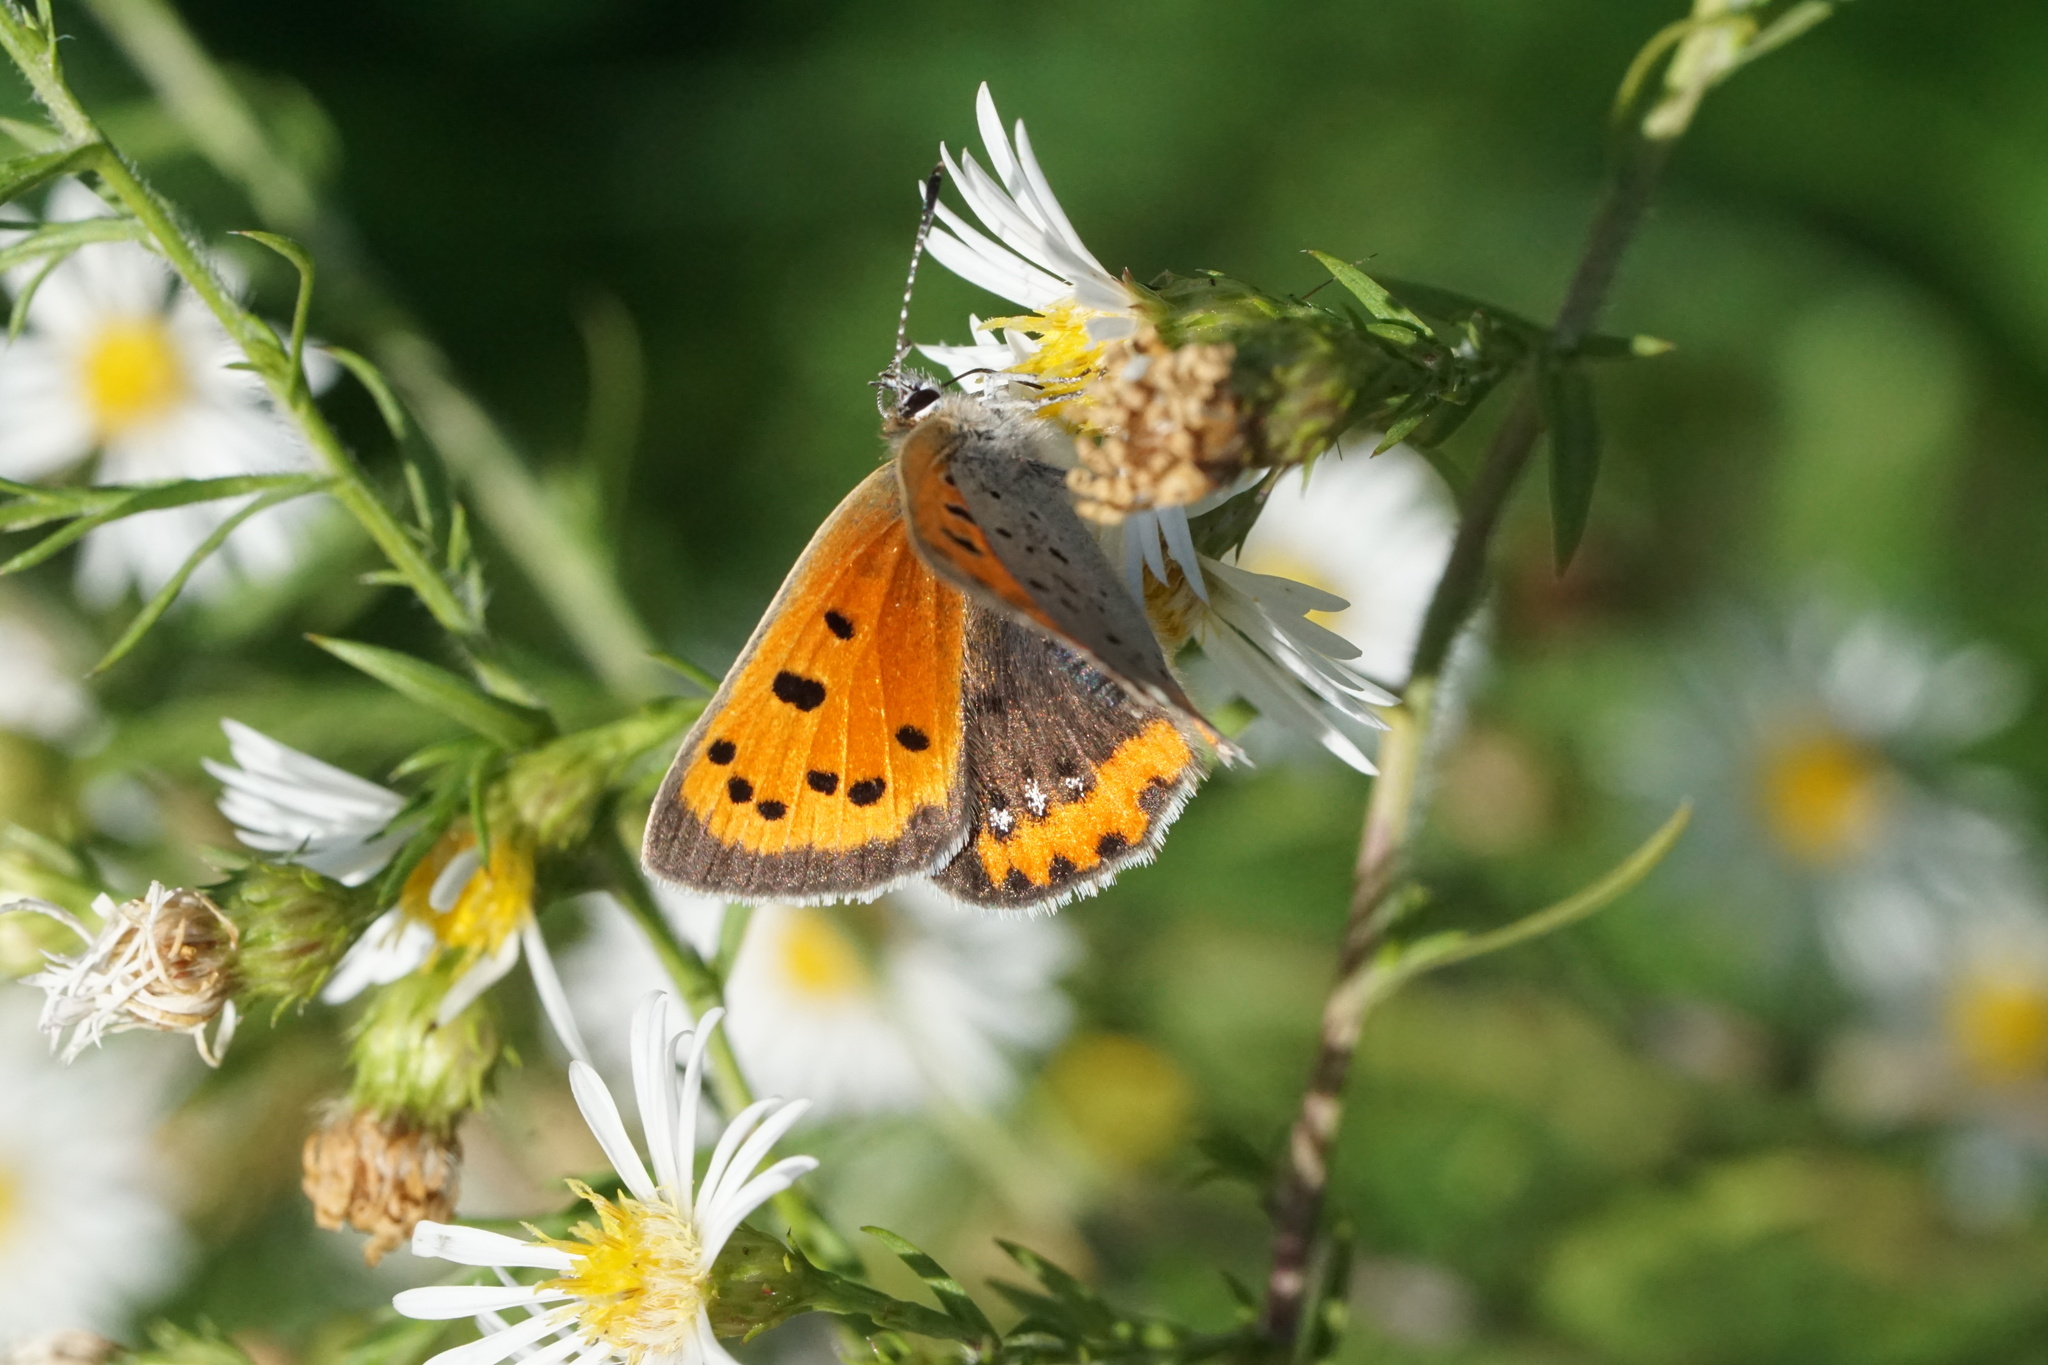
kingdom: Animalia
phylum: Arthropoda
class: Insecta
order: Lepidoptera
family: Lycaenidae
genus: Lycaena
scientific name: Lycaena hypophlaeas
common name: American copper
